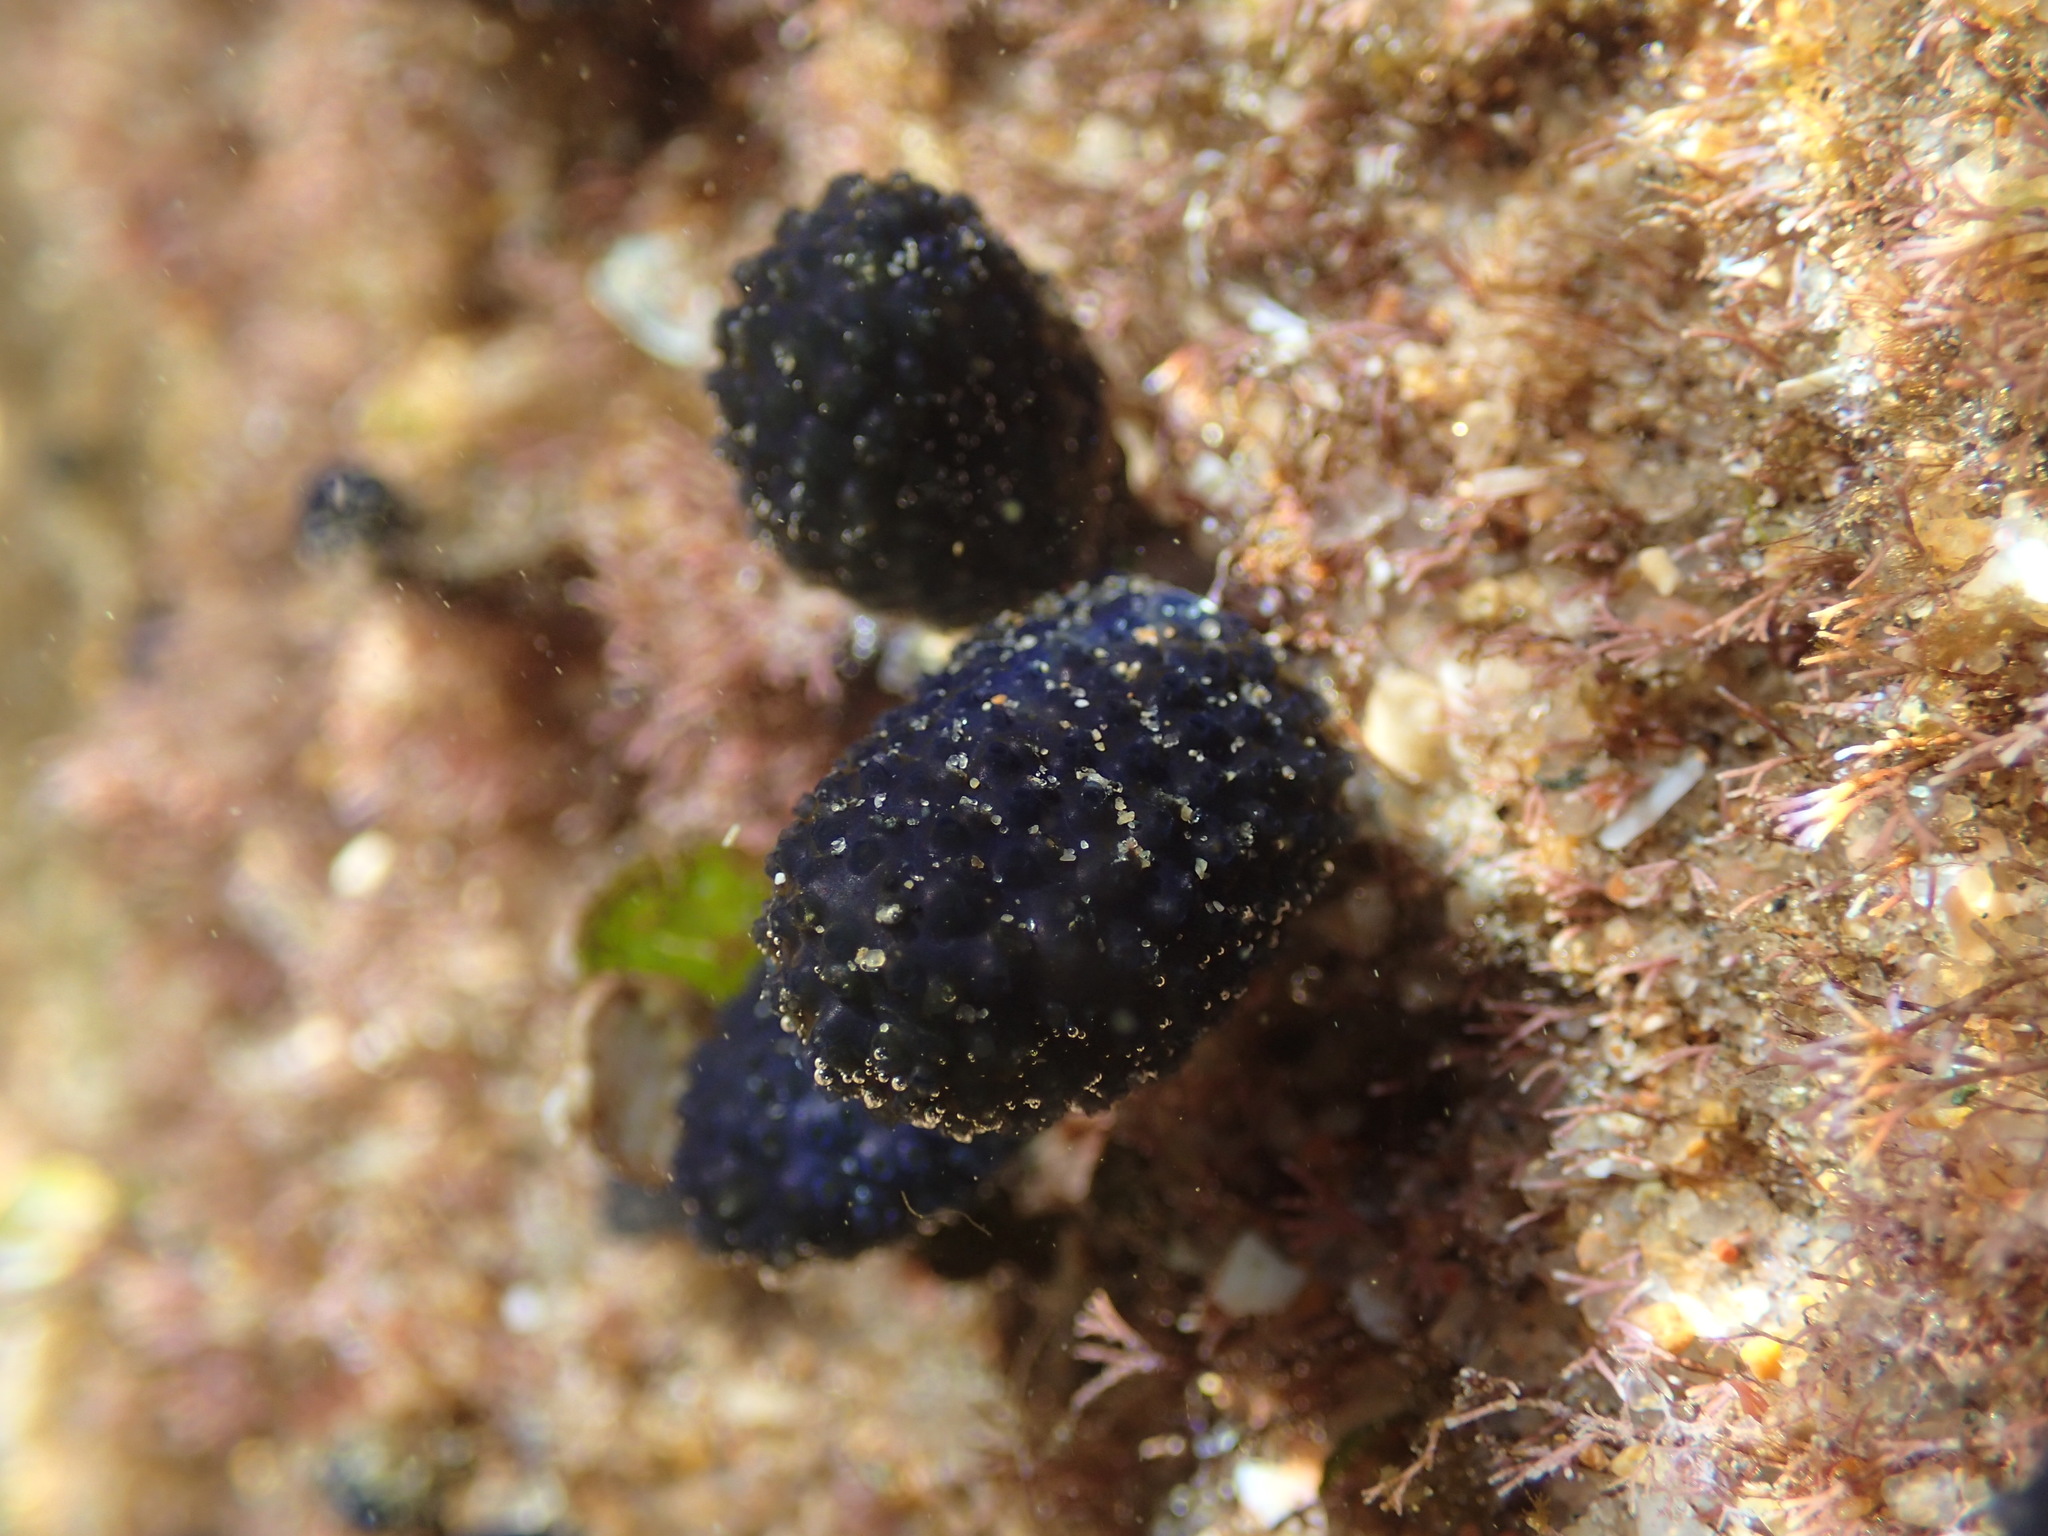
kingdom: Animalia
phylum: Chordata
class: Ascidiacea
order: Aplousobranchia
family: Polycitoridae
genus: Eudistoma
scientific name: Eudistoma caeruleum
